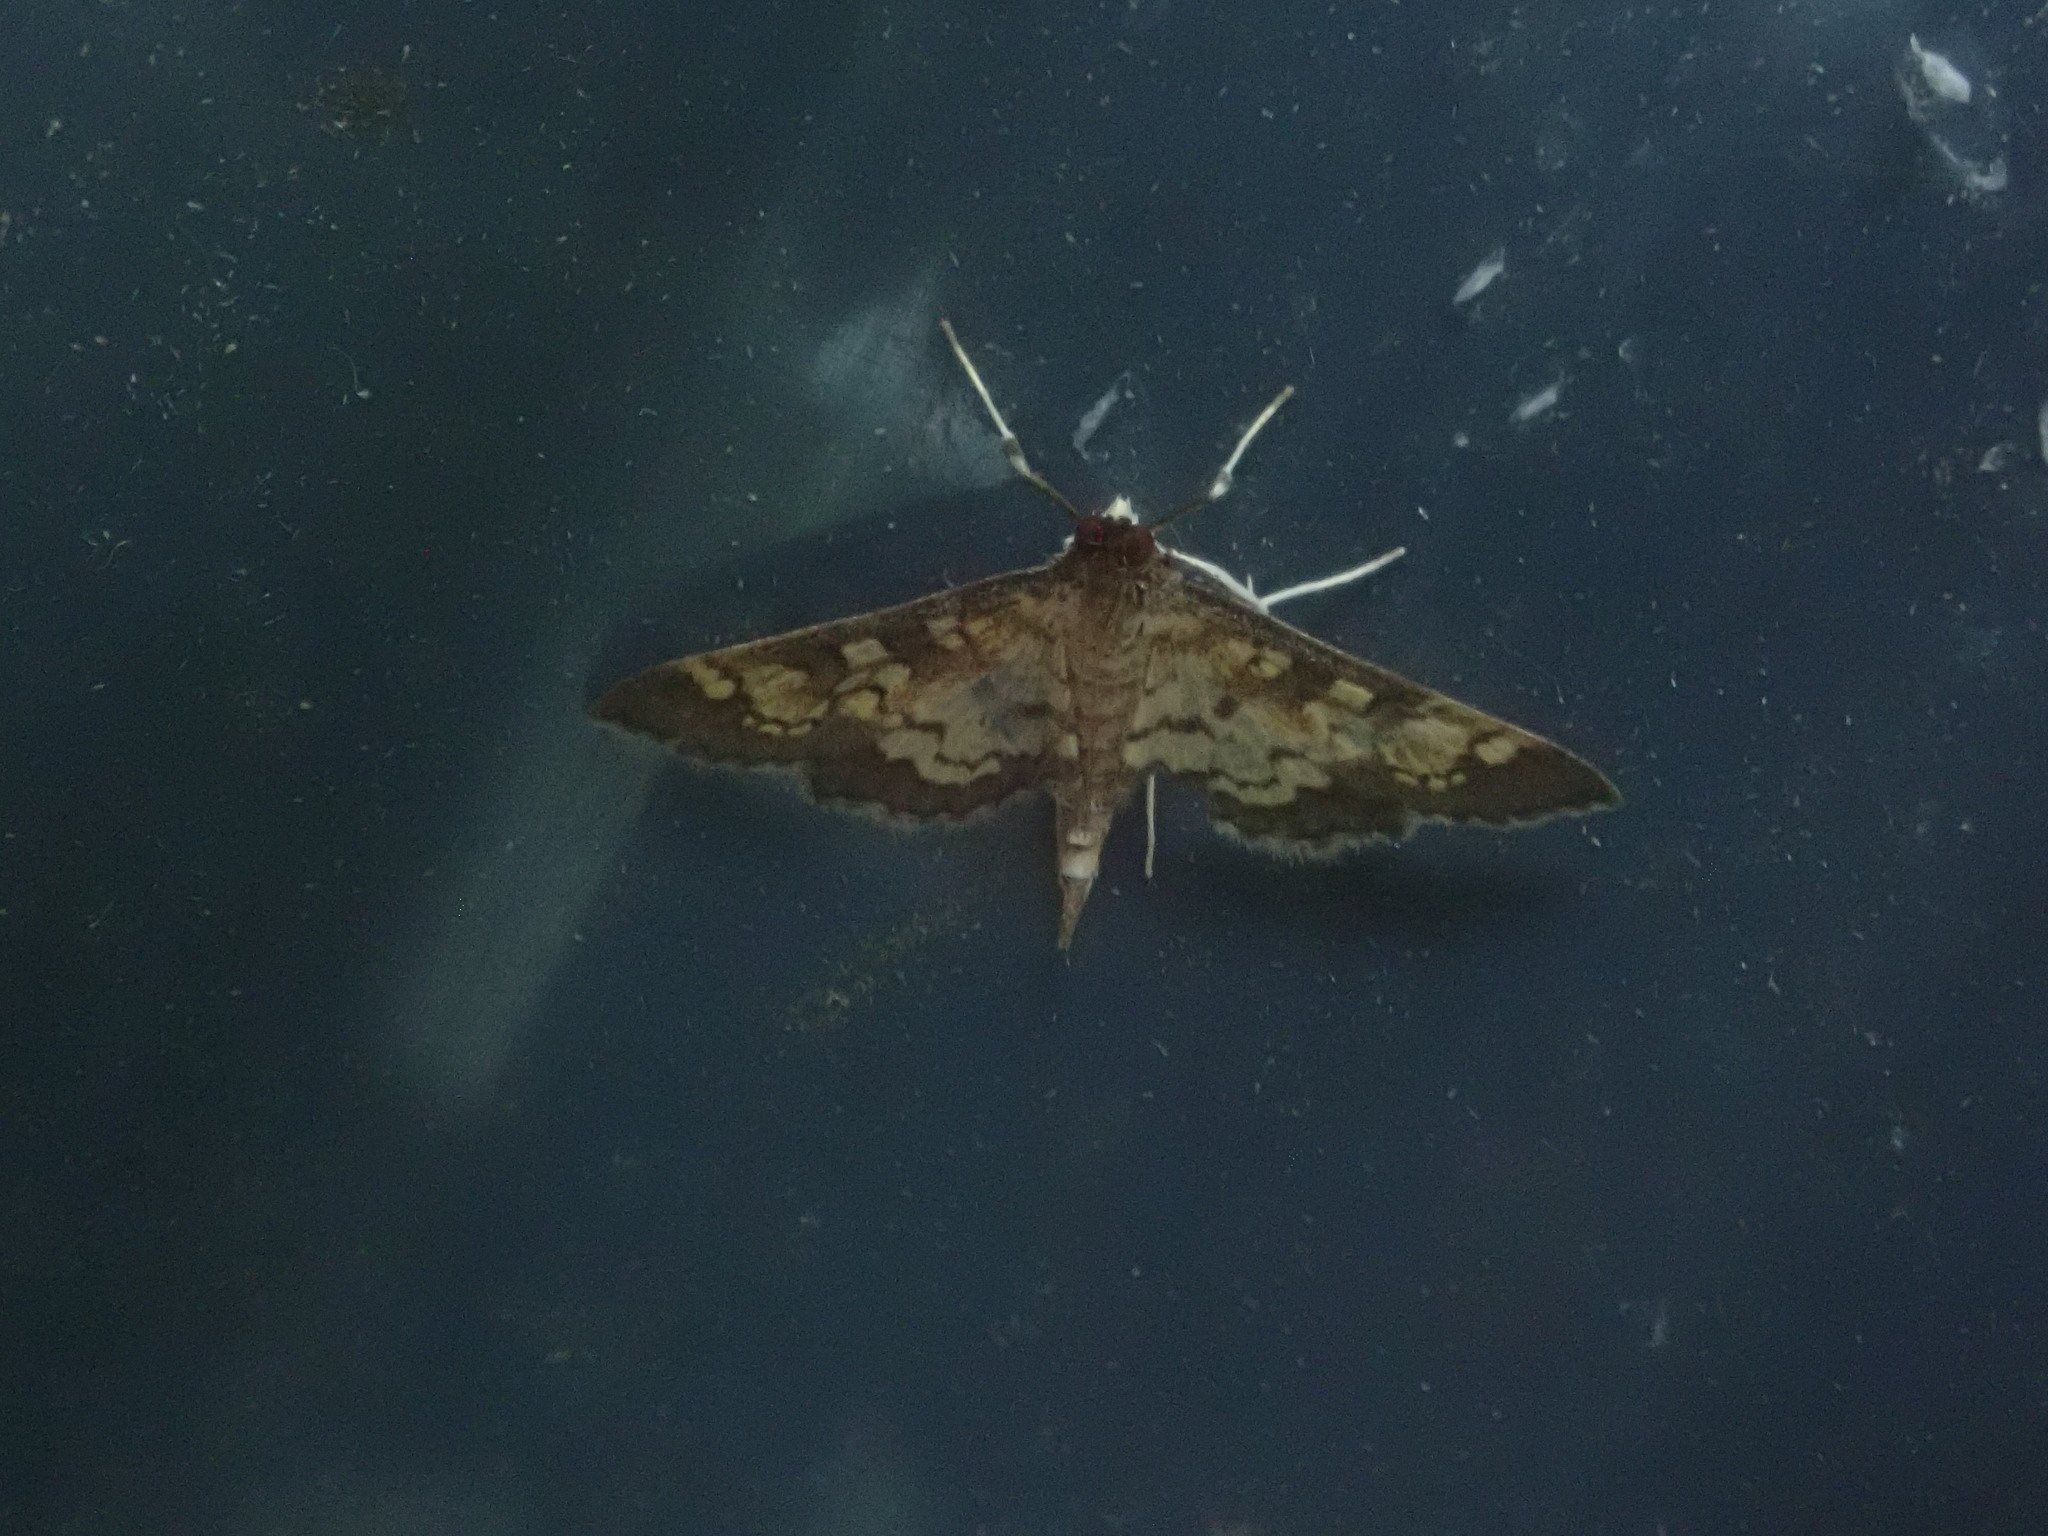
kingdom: Animalia
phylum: Arthropoda
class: Insecta
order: Lepidoptera
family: Crambidae
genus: Epipagis
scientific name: Epipagis adipaloides
